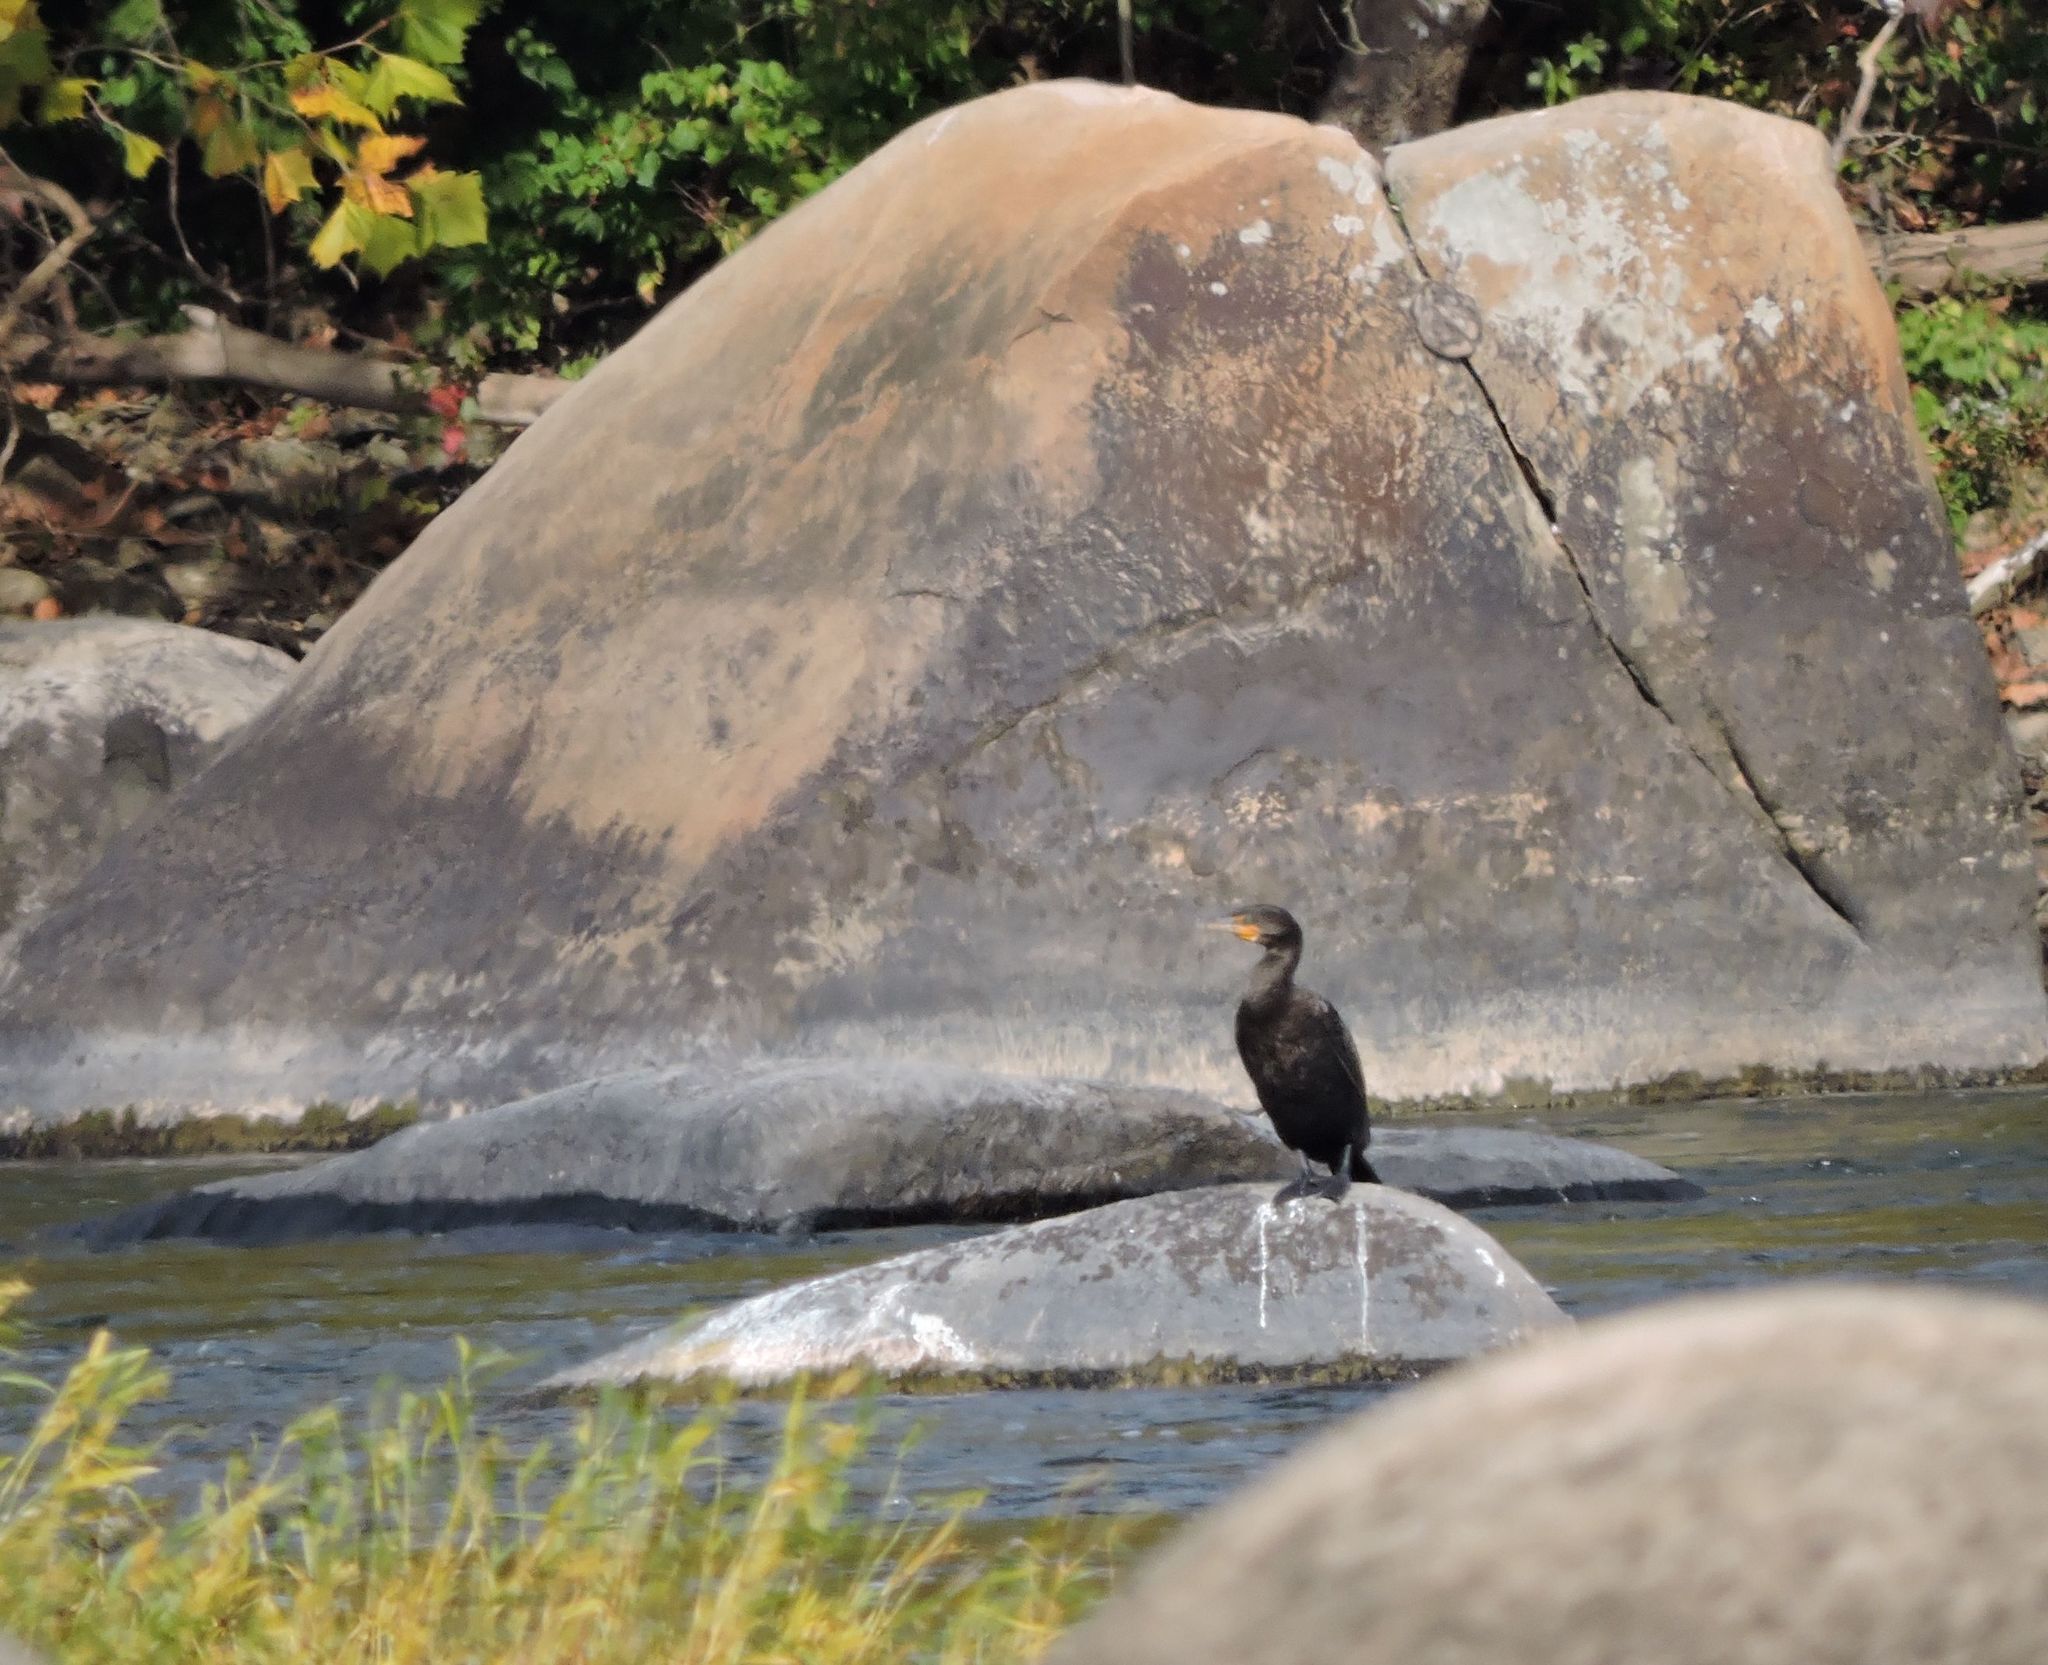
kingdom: Animalia
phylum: Chordata
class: Aves
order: Suliformes
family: Phalacrocoracidae
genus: Phalacrocorax
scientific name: Phalacrocorax auritus
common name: Double-crested cormorant
